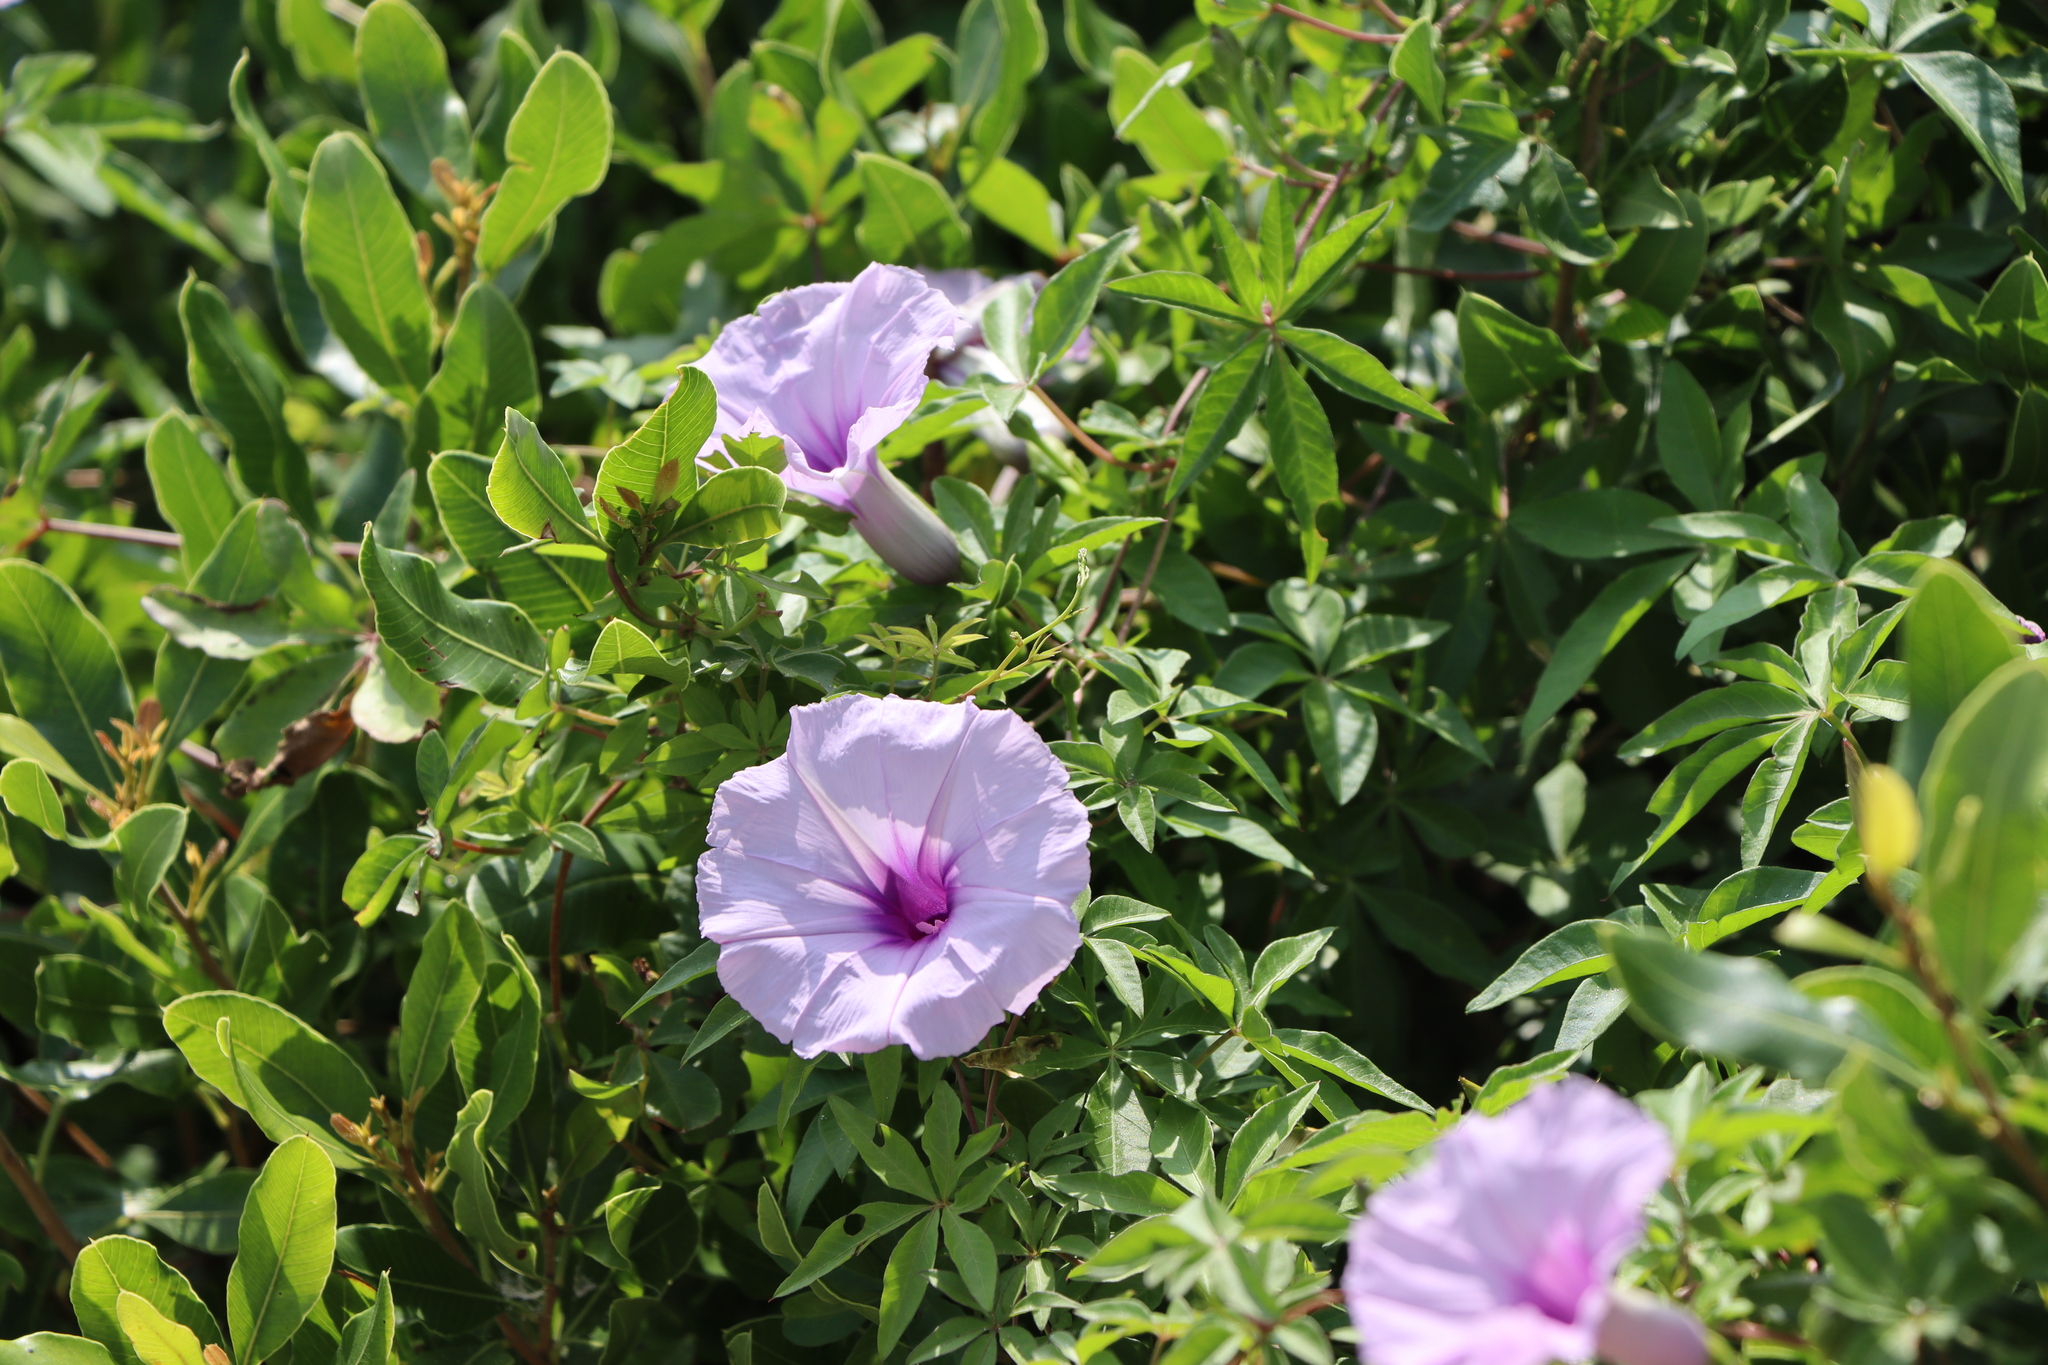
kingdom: Plantae
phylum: Tracheophyta
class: Magnoliopsida
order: Solanales
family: Convolvulaceae
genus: Ipomoea
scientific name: Ipomoea cairica
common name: Mile a minute vine
